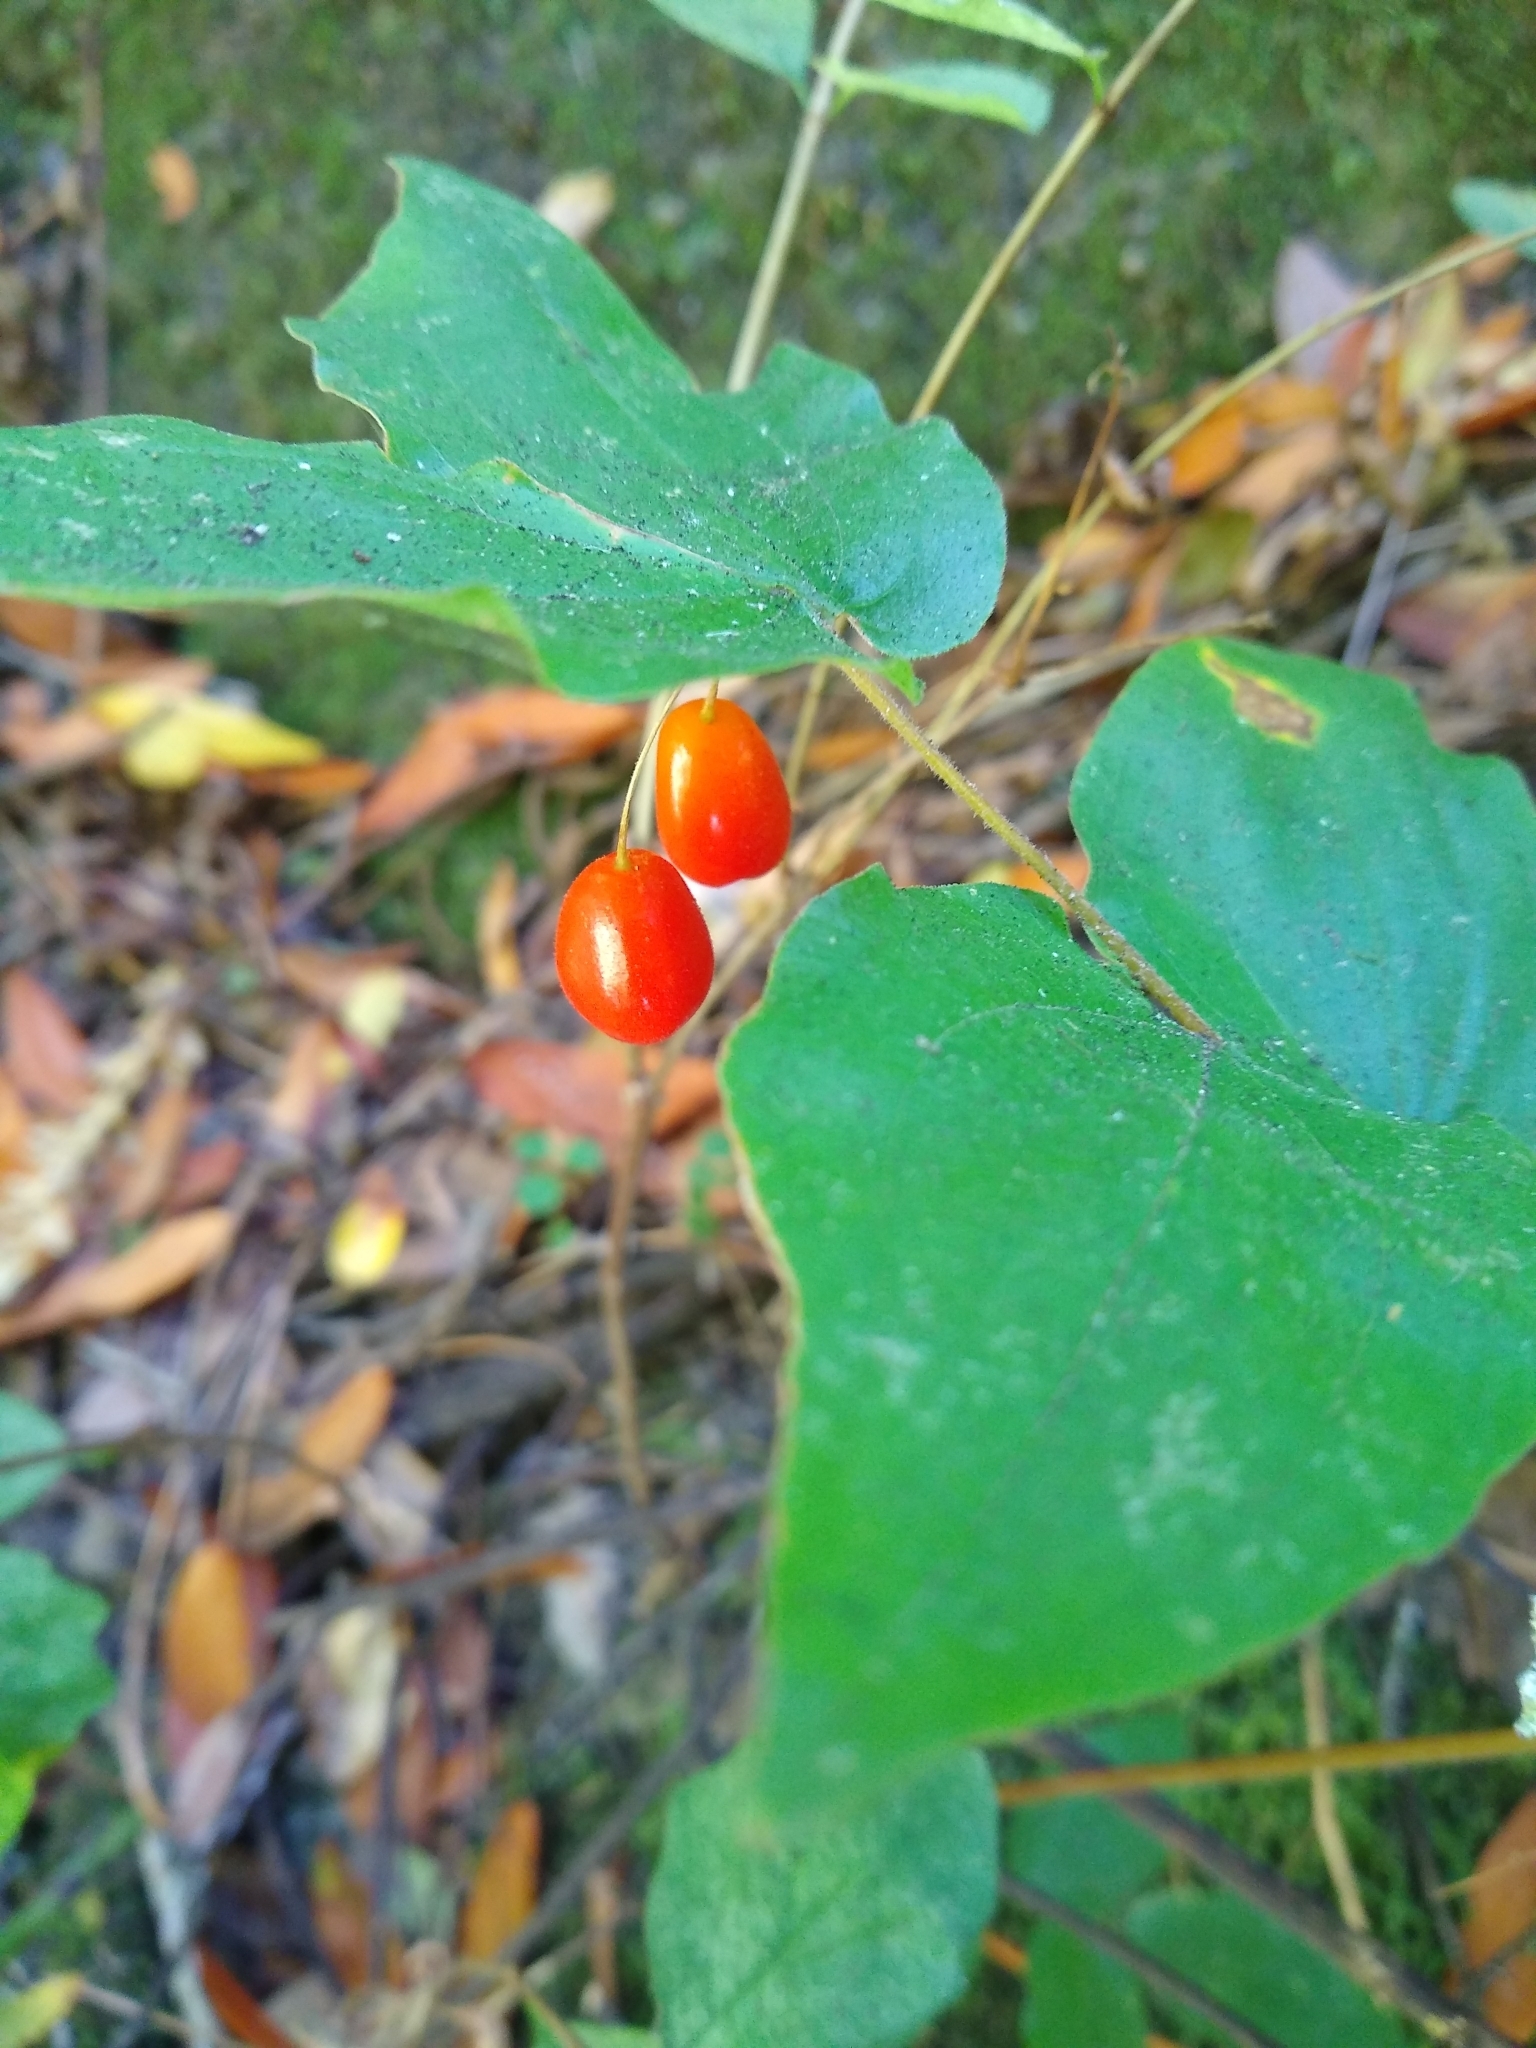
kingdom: Plantae
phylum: Tracheophyta
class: Liliopsida
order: Liliales
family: Liliaceae
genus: Prosartes
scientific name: Prosartes hookeri
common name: Fairy-bells
